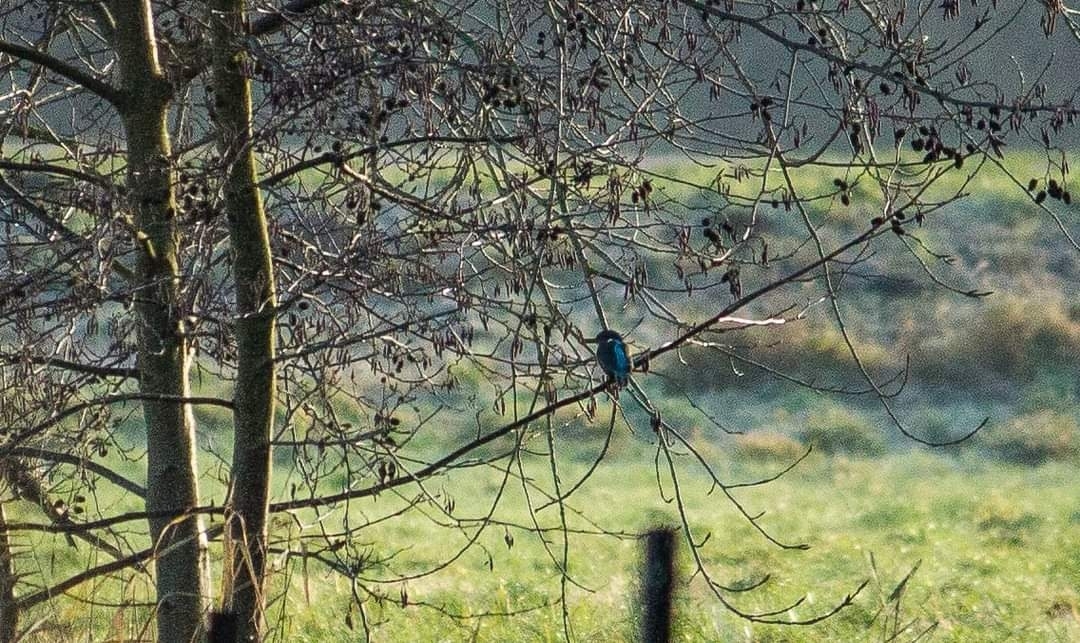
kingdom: Animalia
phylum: Chordata
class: Aves
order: Coraciiformes
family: Alcedinidae
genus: Alcedo
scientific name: Alcedo atthis
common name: Common kingfisher
